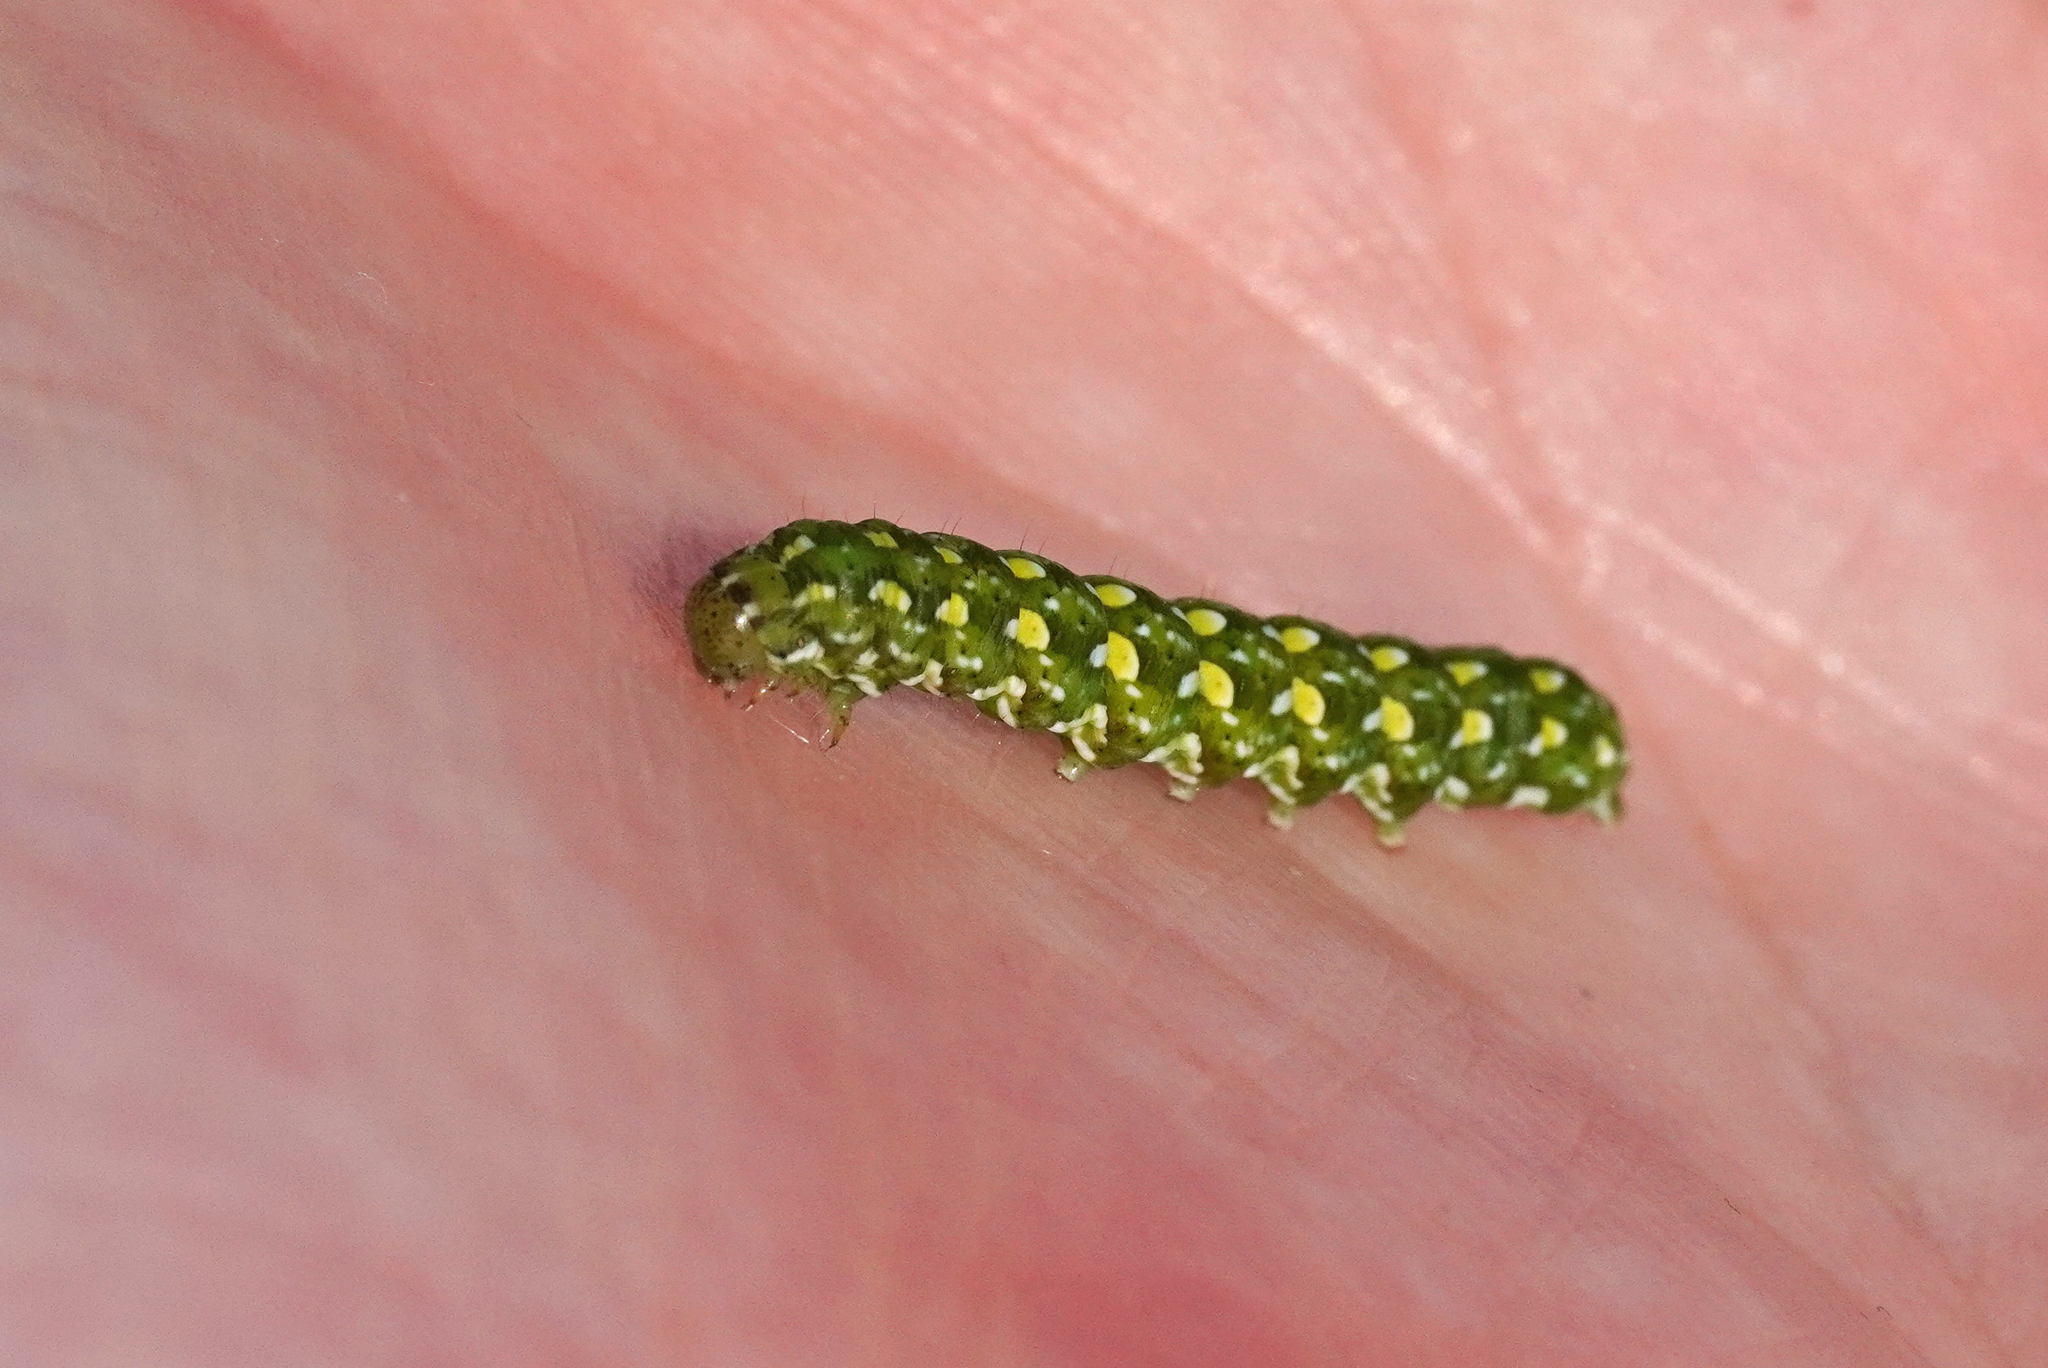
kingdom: Animalia
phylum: Arthropoda
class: Insecta
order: Lepidoptera
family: Noctuidae
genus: Anarta
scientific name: Anarta myrtilli
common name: Beautiful yellow underwing
